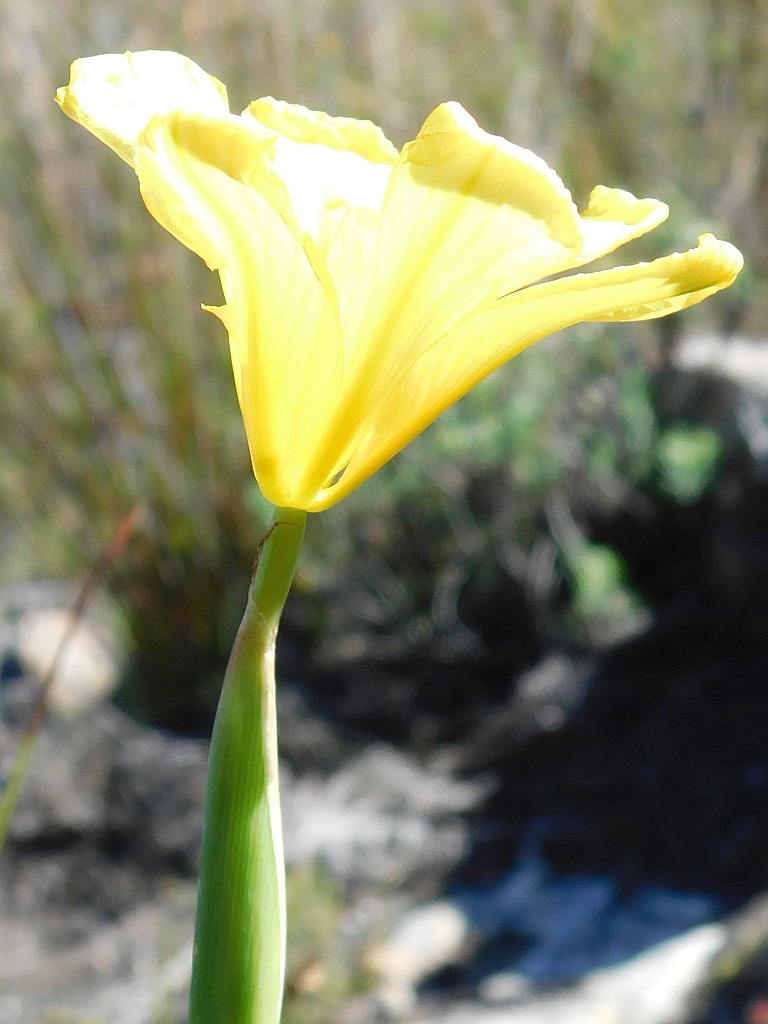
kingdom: Plantae
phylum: Tracheophyta
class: Liliopsida
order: Asparagales
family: Iridaceae
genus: Moraea
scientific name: Moraea ochroleuca
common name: Red tulp
